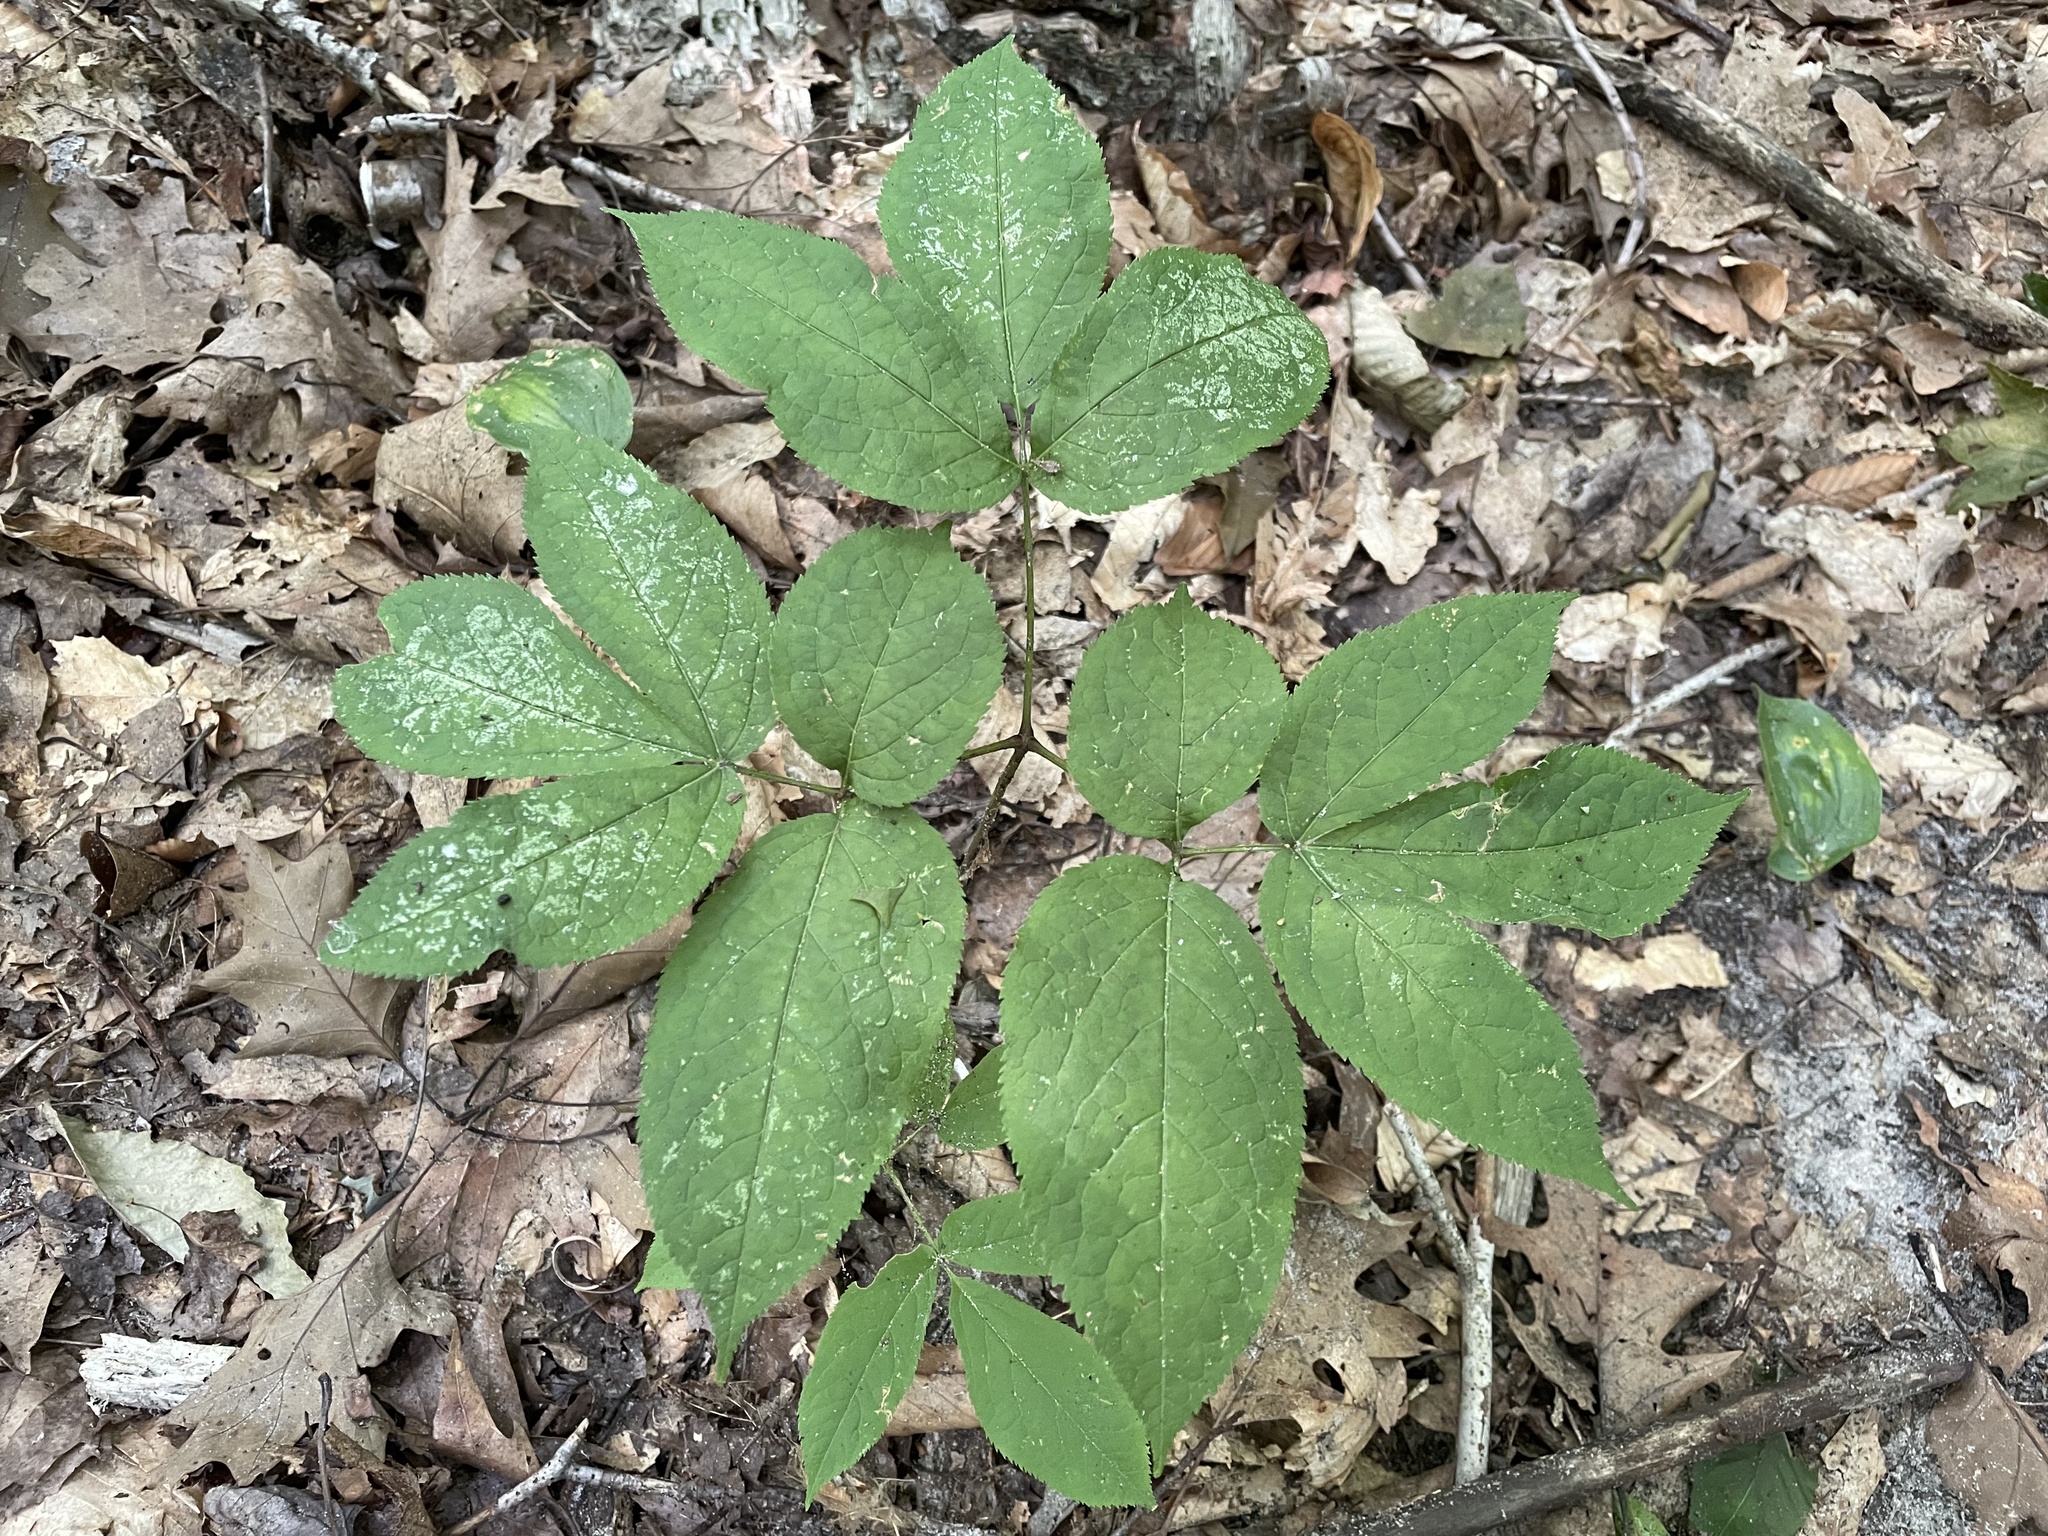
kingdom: Plantae
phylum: Tracheophyta
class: Magnoliopsida
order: Apiales
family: Araliaceae
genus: Aralia
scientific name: Aralia nudicaulis
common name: Wild sarsaparilla
